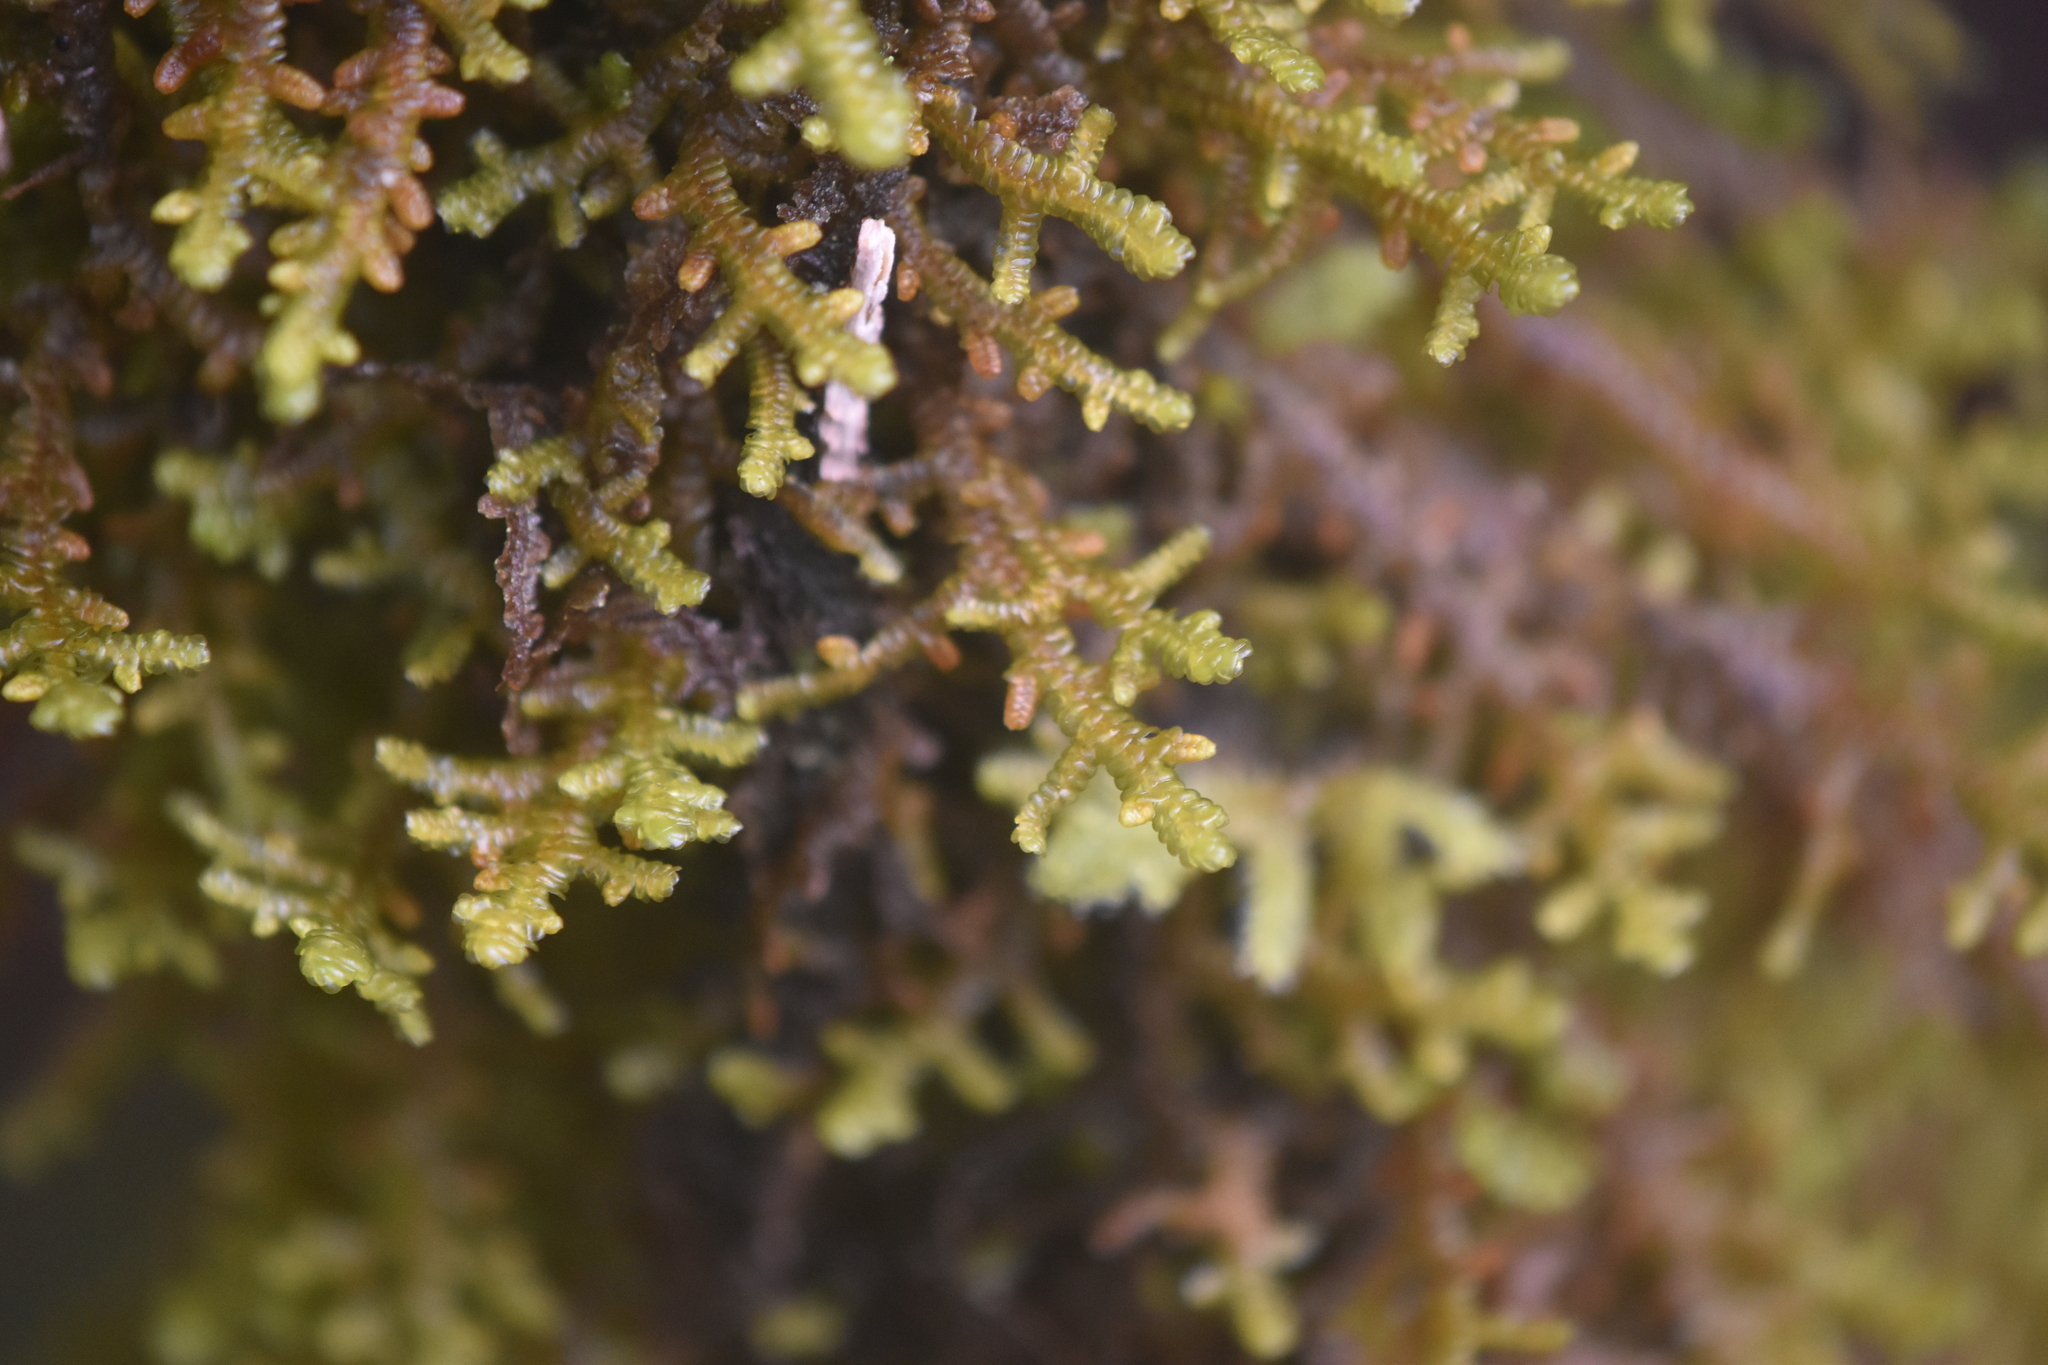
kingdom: Plantae
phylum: Marchantiophyta
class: Jungermanniopsida
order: Porellales
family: Porellaceae
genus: Porella
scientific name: Porella navicularis
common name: Tree ruffle liverwort
